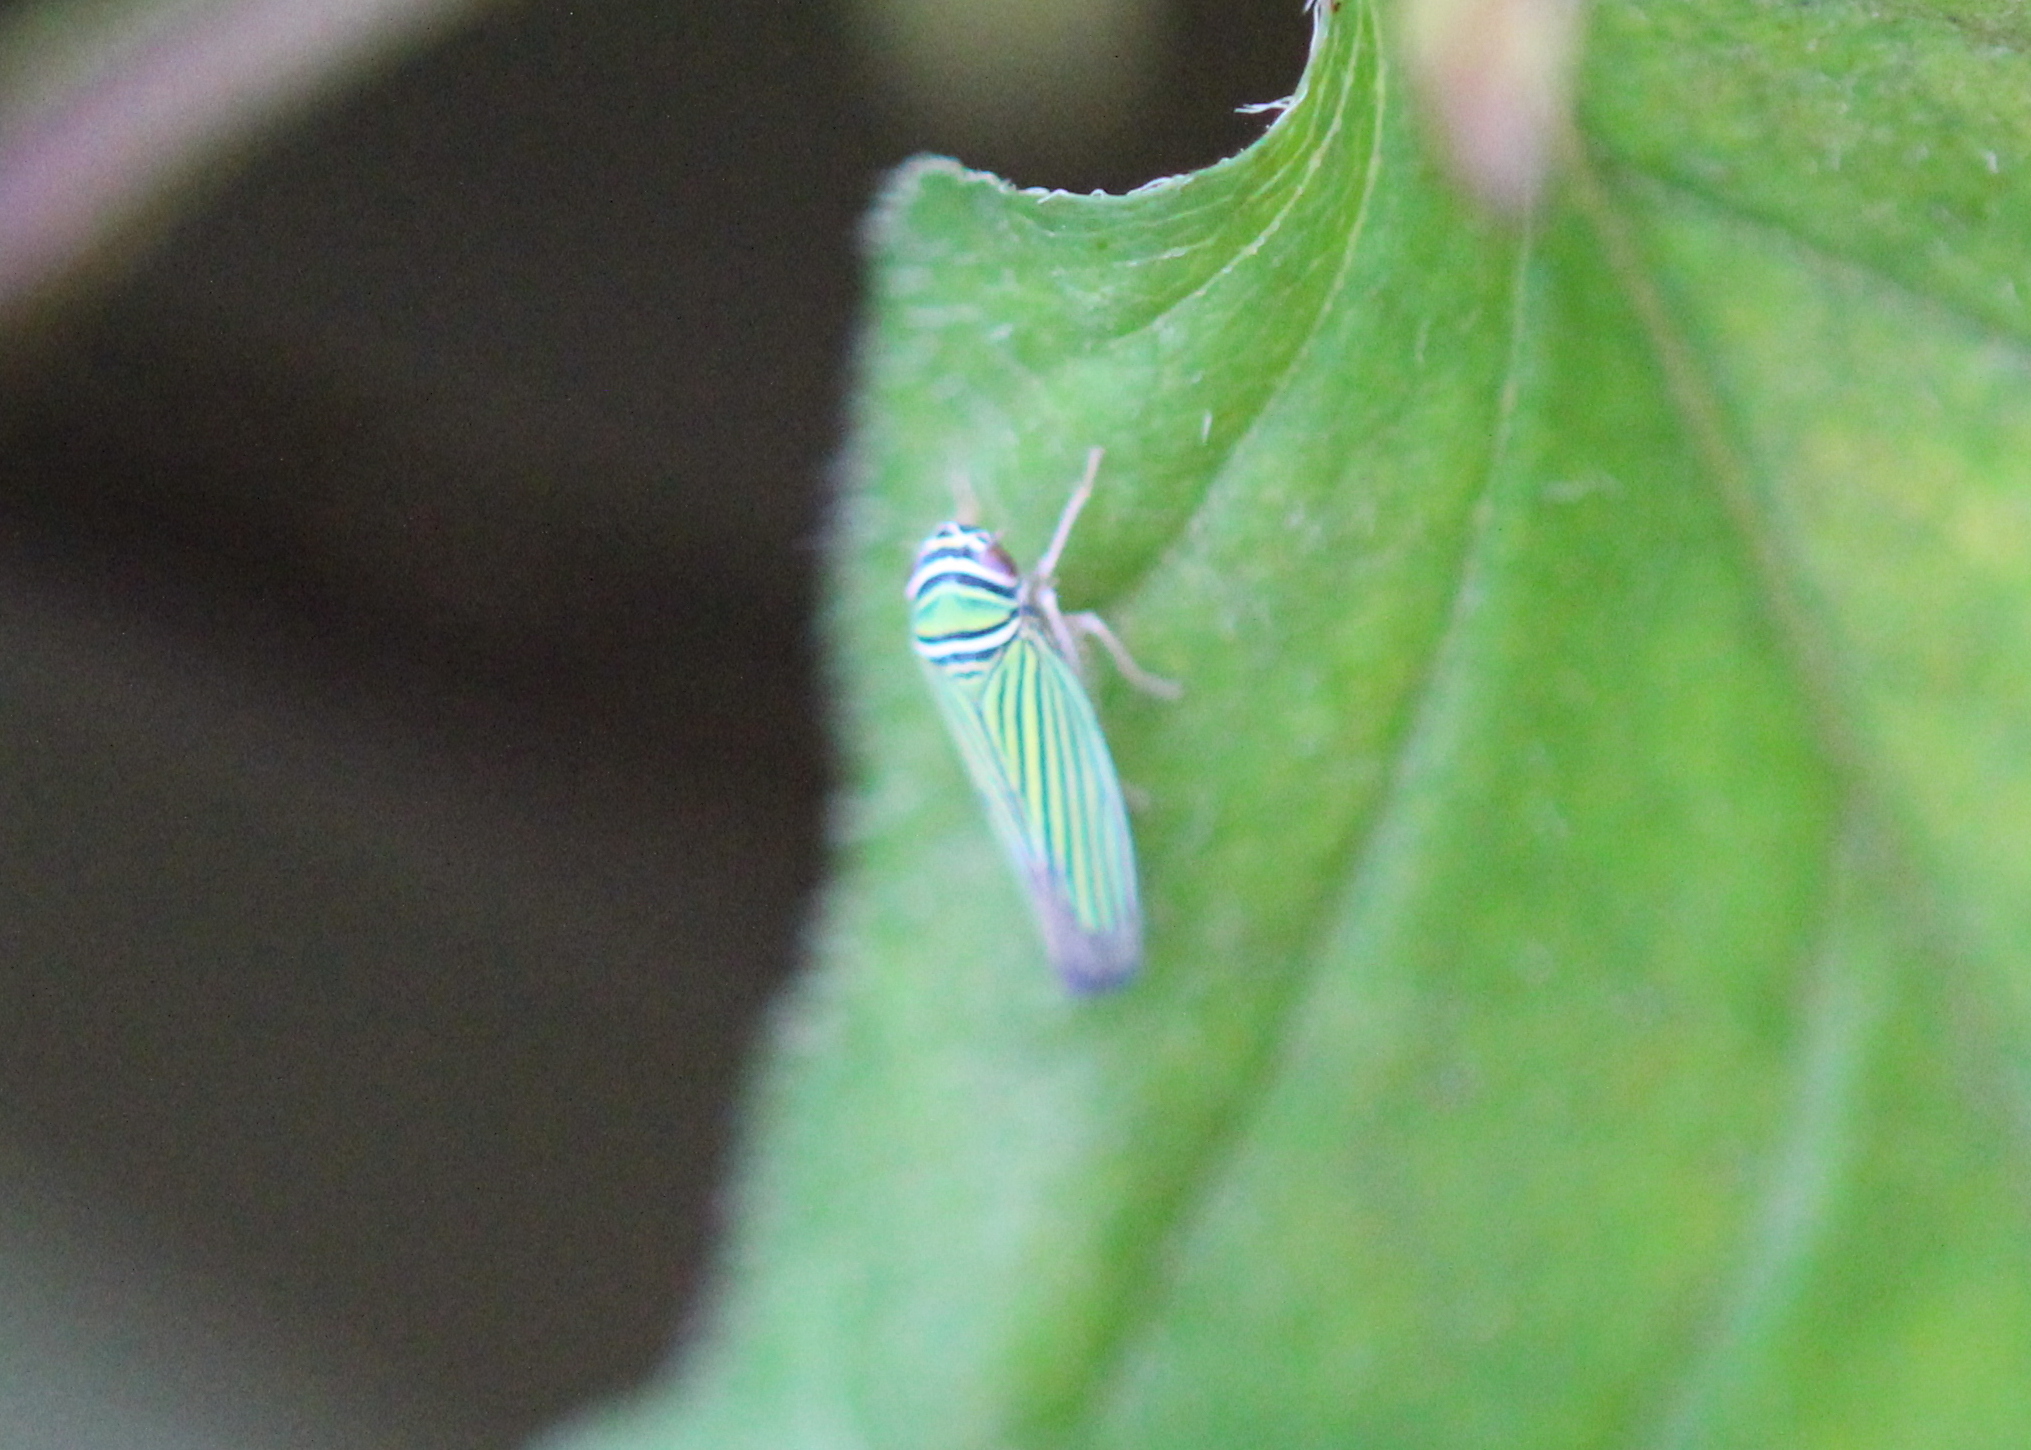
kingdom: Animalia
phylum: Arthropoda
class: Insecta
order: Hemiptera
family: Cicadellidae
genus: Tylozygus
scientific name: Tylozygus bifidus
